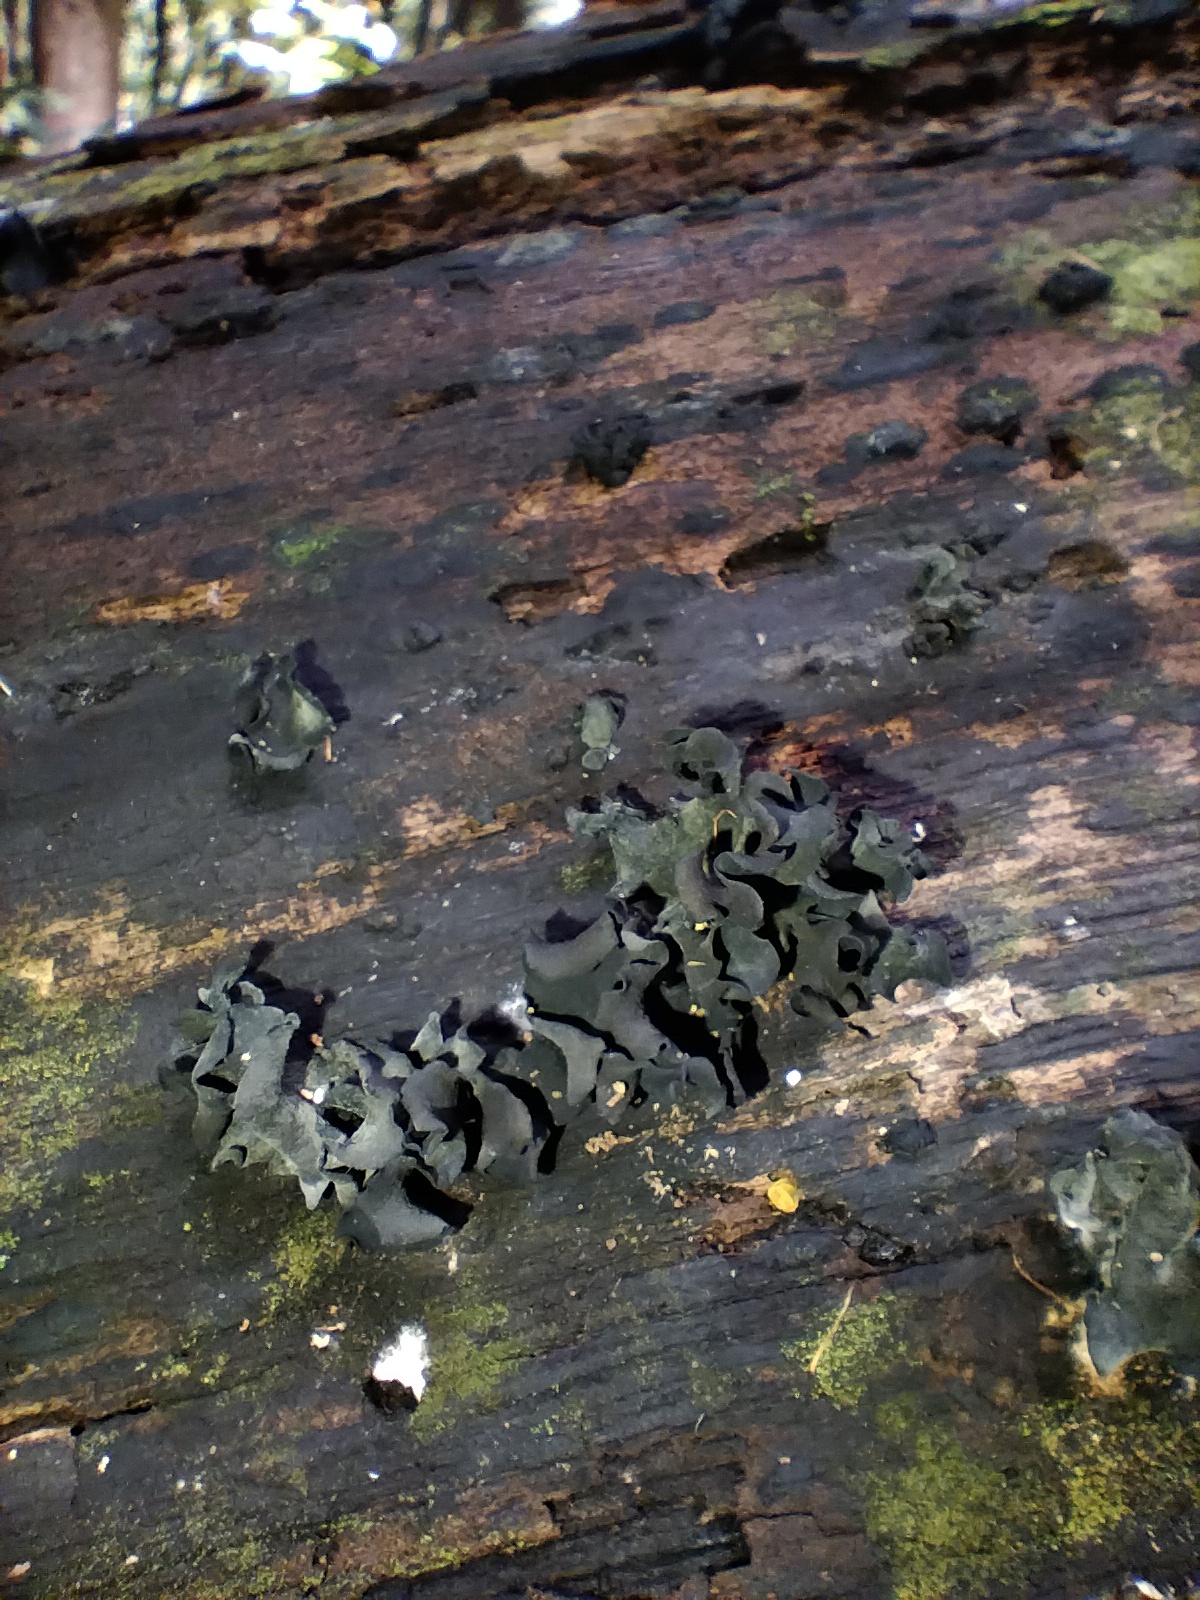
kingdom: Fungi
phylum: Ascomycota
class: Leotiomycetes
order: Helotiales
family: Cordieritidaceae
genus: Cordierites
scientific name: Cordierites frondosus
